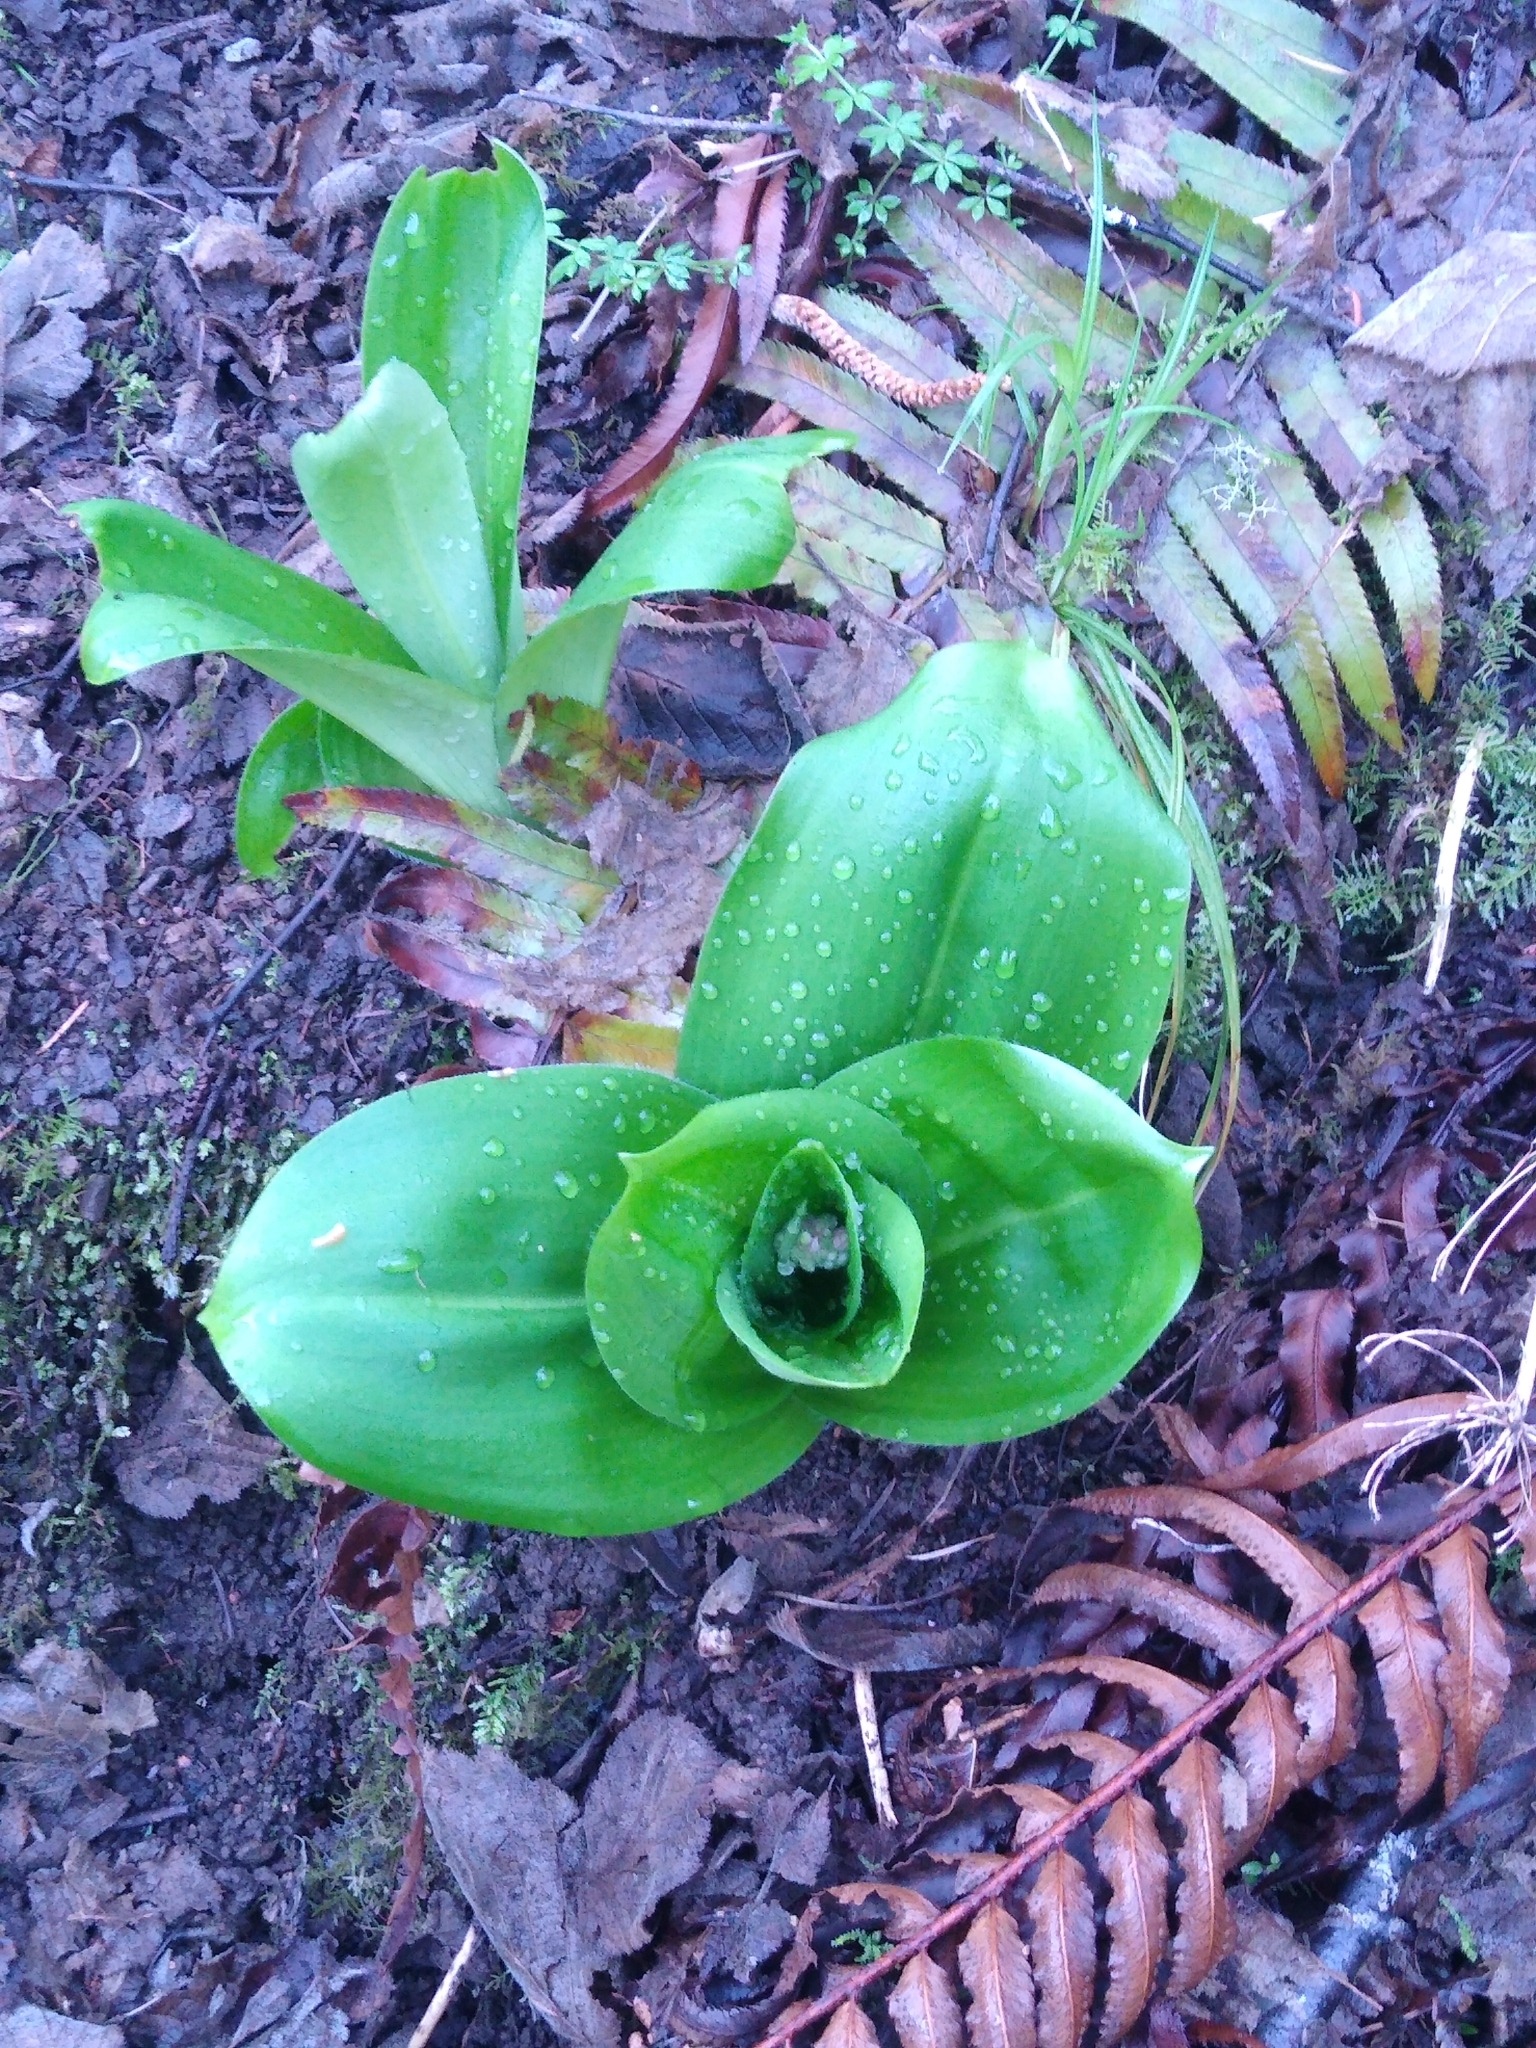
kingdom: Plantae
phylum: Tracheophyta
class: Liliopsida
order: Liliales
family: Liliaceae
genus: Clintonia
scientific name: Clintonia andrewsiana
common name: Red clintonia
